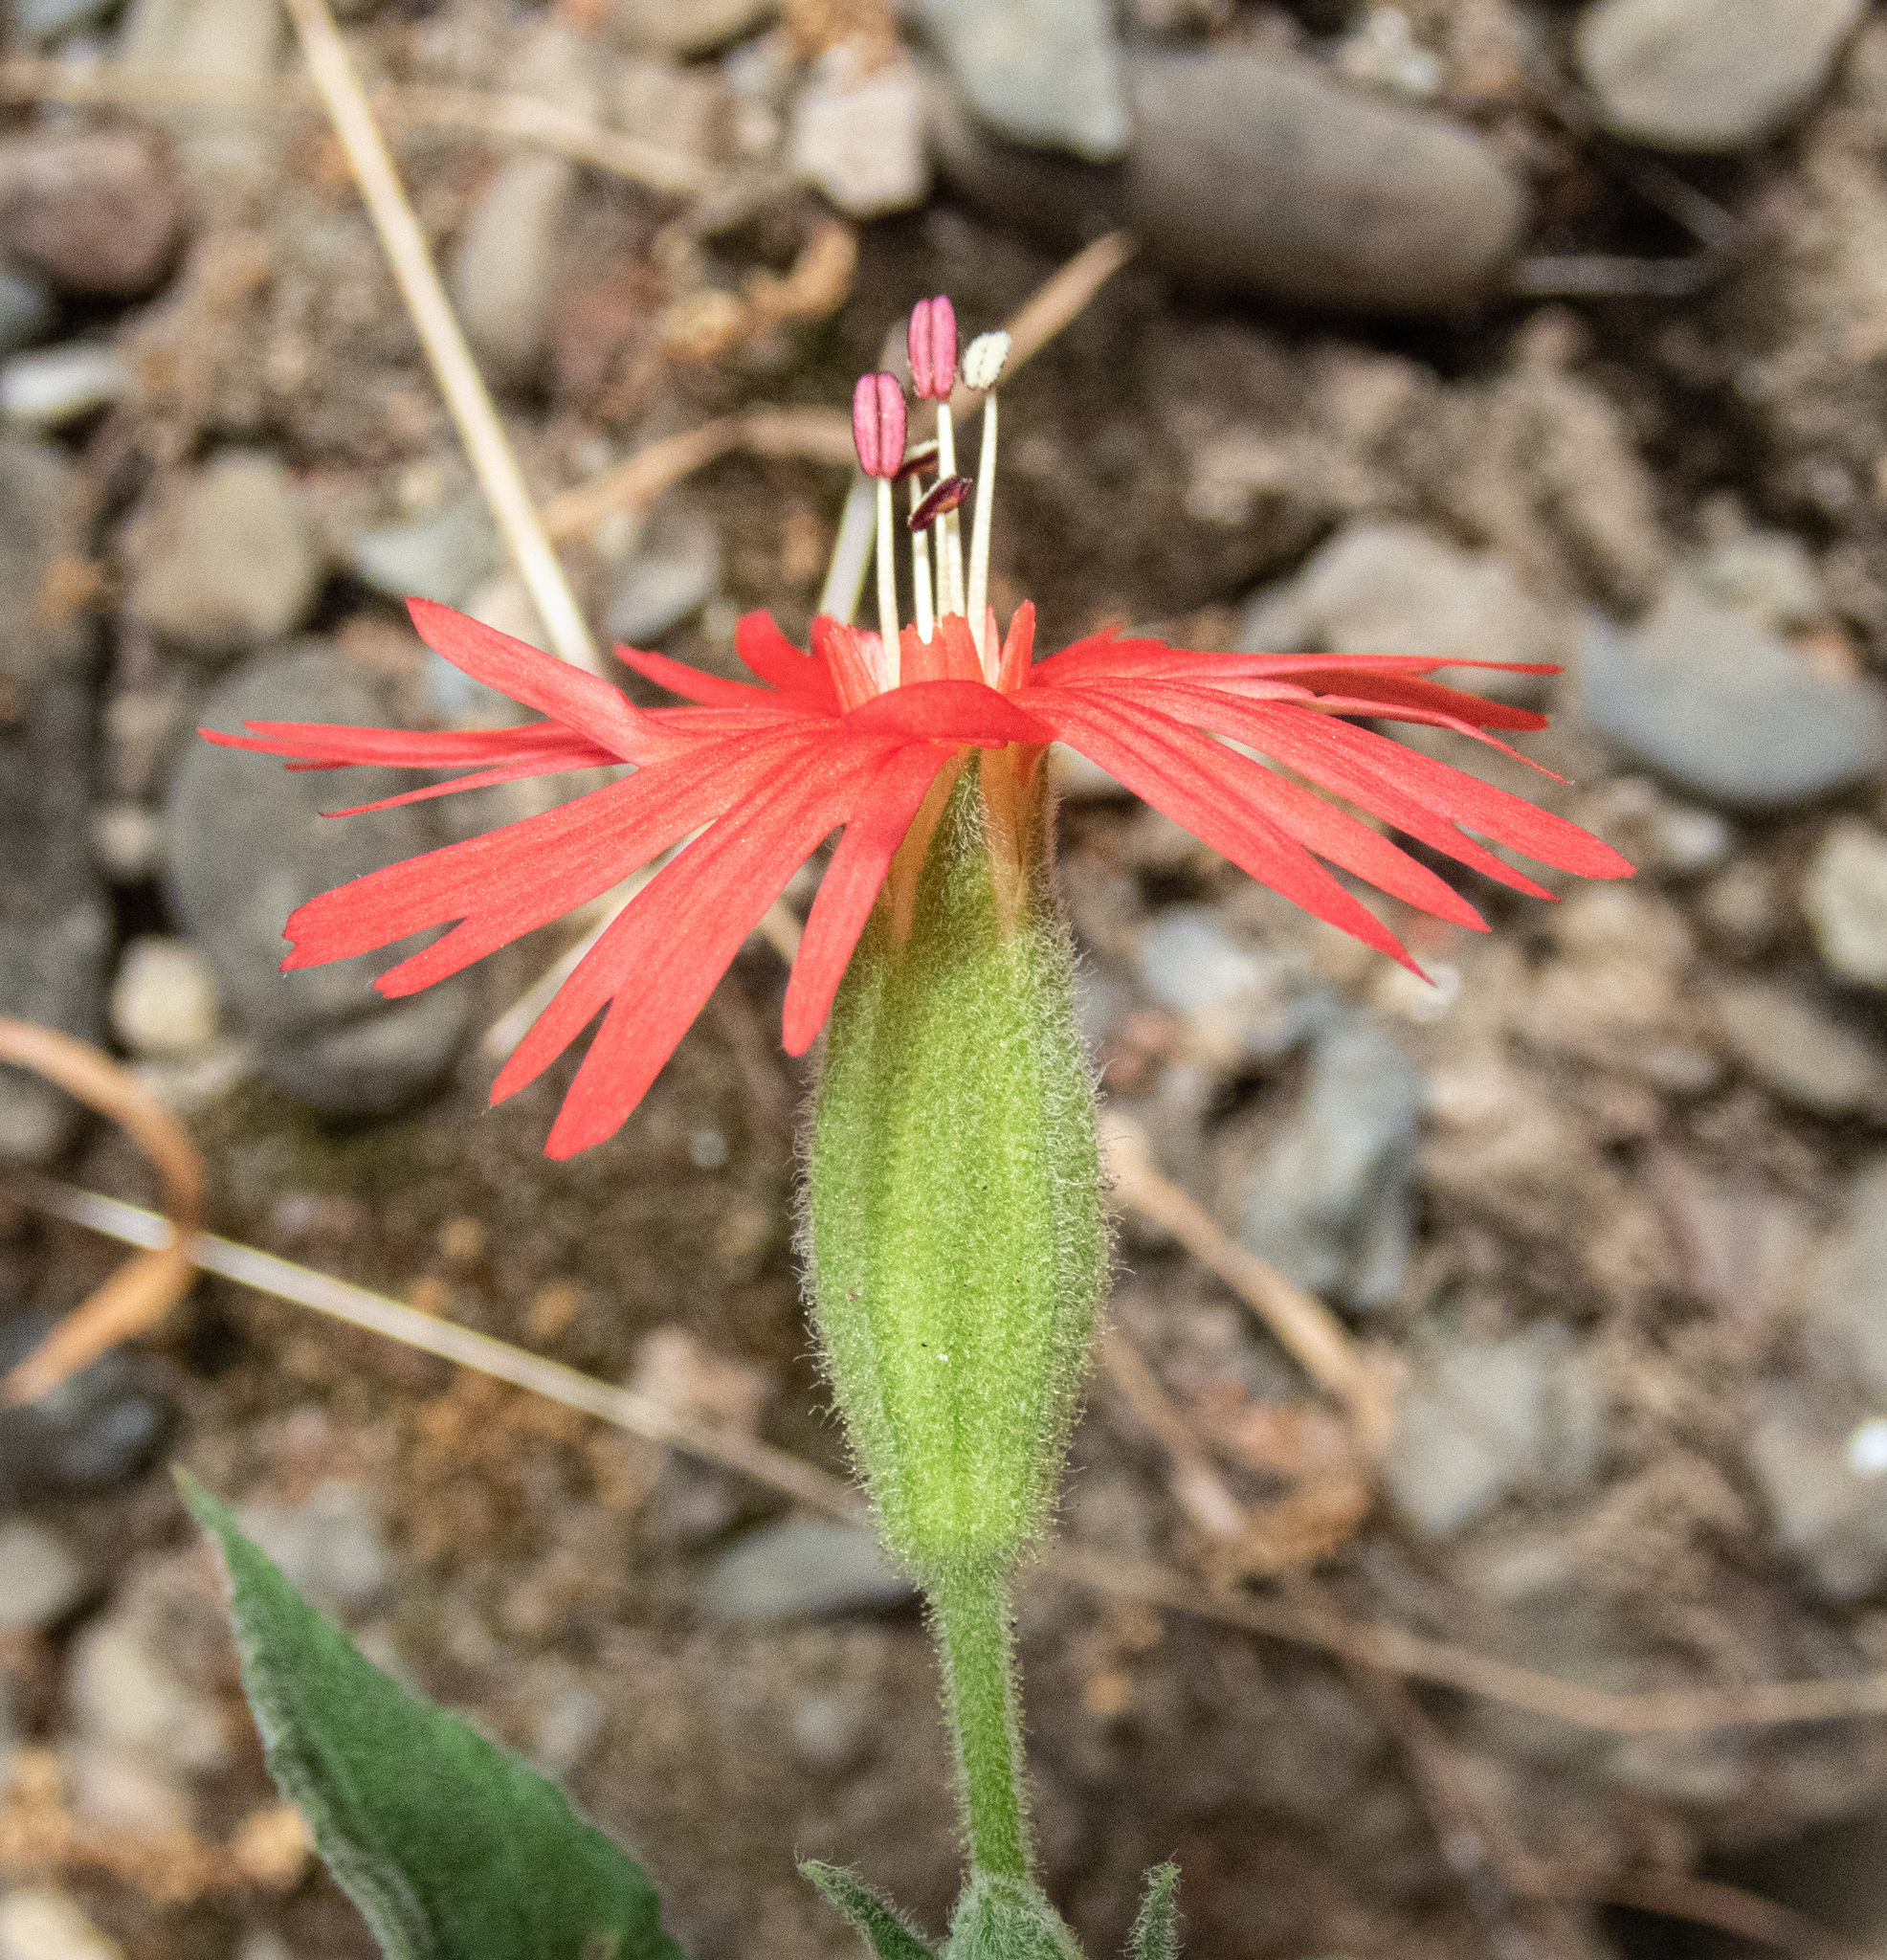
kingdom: Plantae
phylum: Tracheophyta
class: Magnoliopsida
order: Caryophyllales
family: Caryophyllaceae
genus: Silene
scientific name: Silene laciniata
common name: Indian-pink
